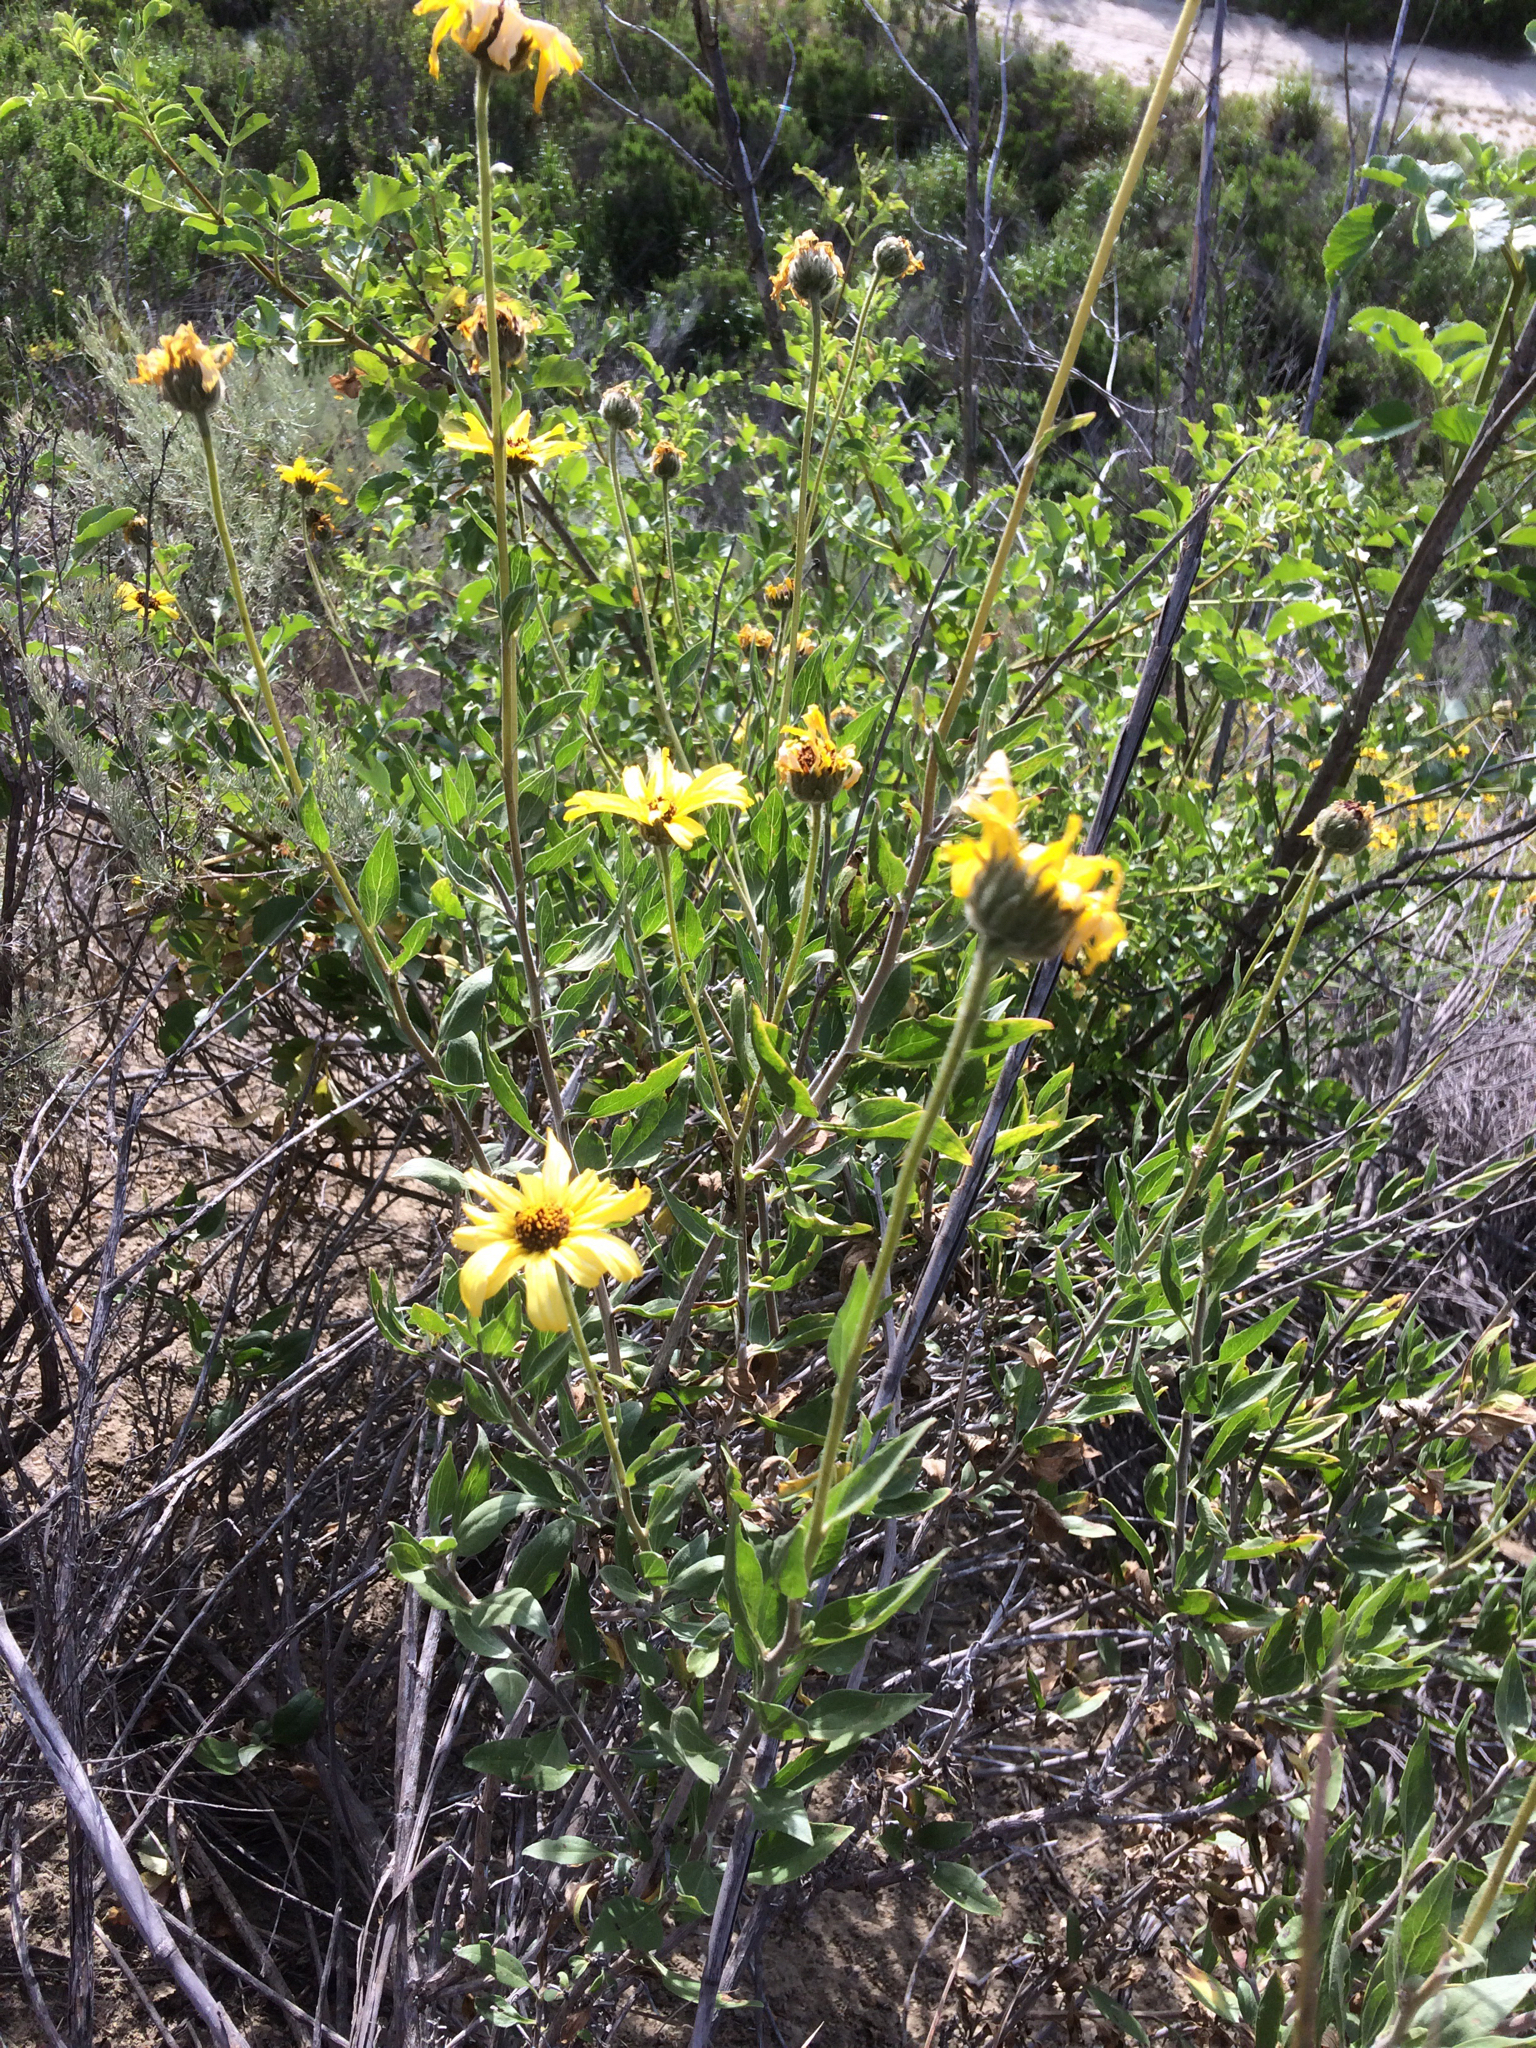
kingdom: Plantae
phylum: Tracheophyta
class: Magnoliopsida
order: Asterales
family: Asteraceae
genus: Encelia
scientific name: Encelia californica
